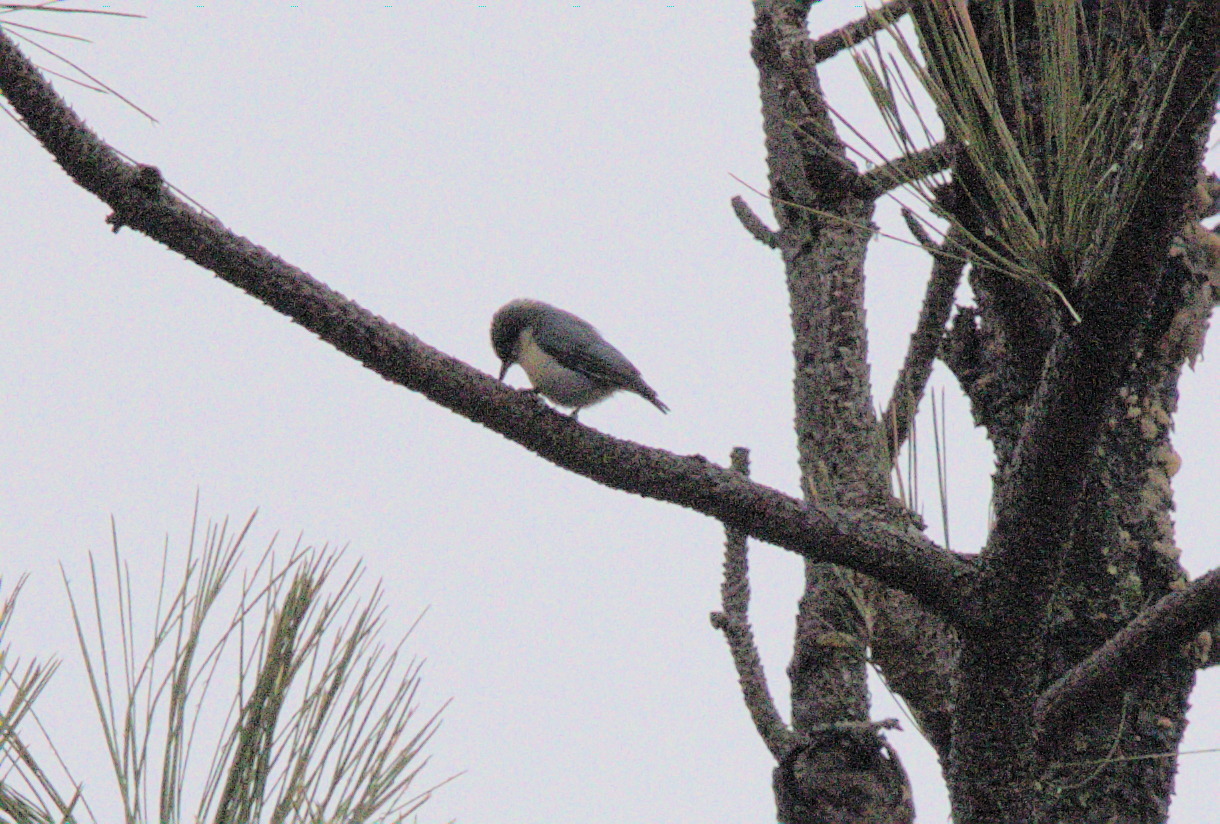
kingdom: Animalia
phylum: Chordata
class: Aves
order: Passeriformes
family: Sittidae
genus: Sitta
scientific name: Sitta pygmaea
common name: Pygmy nuthatch
